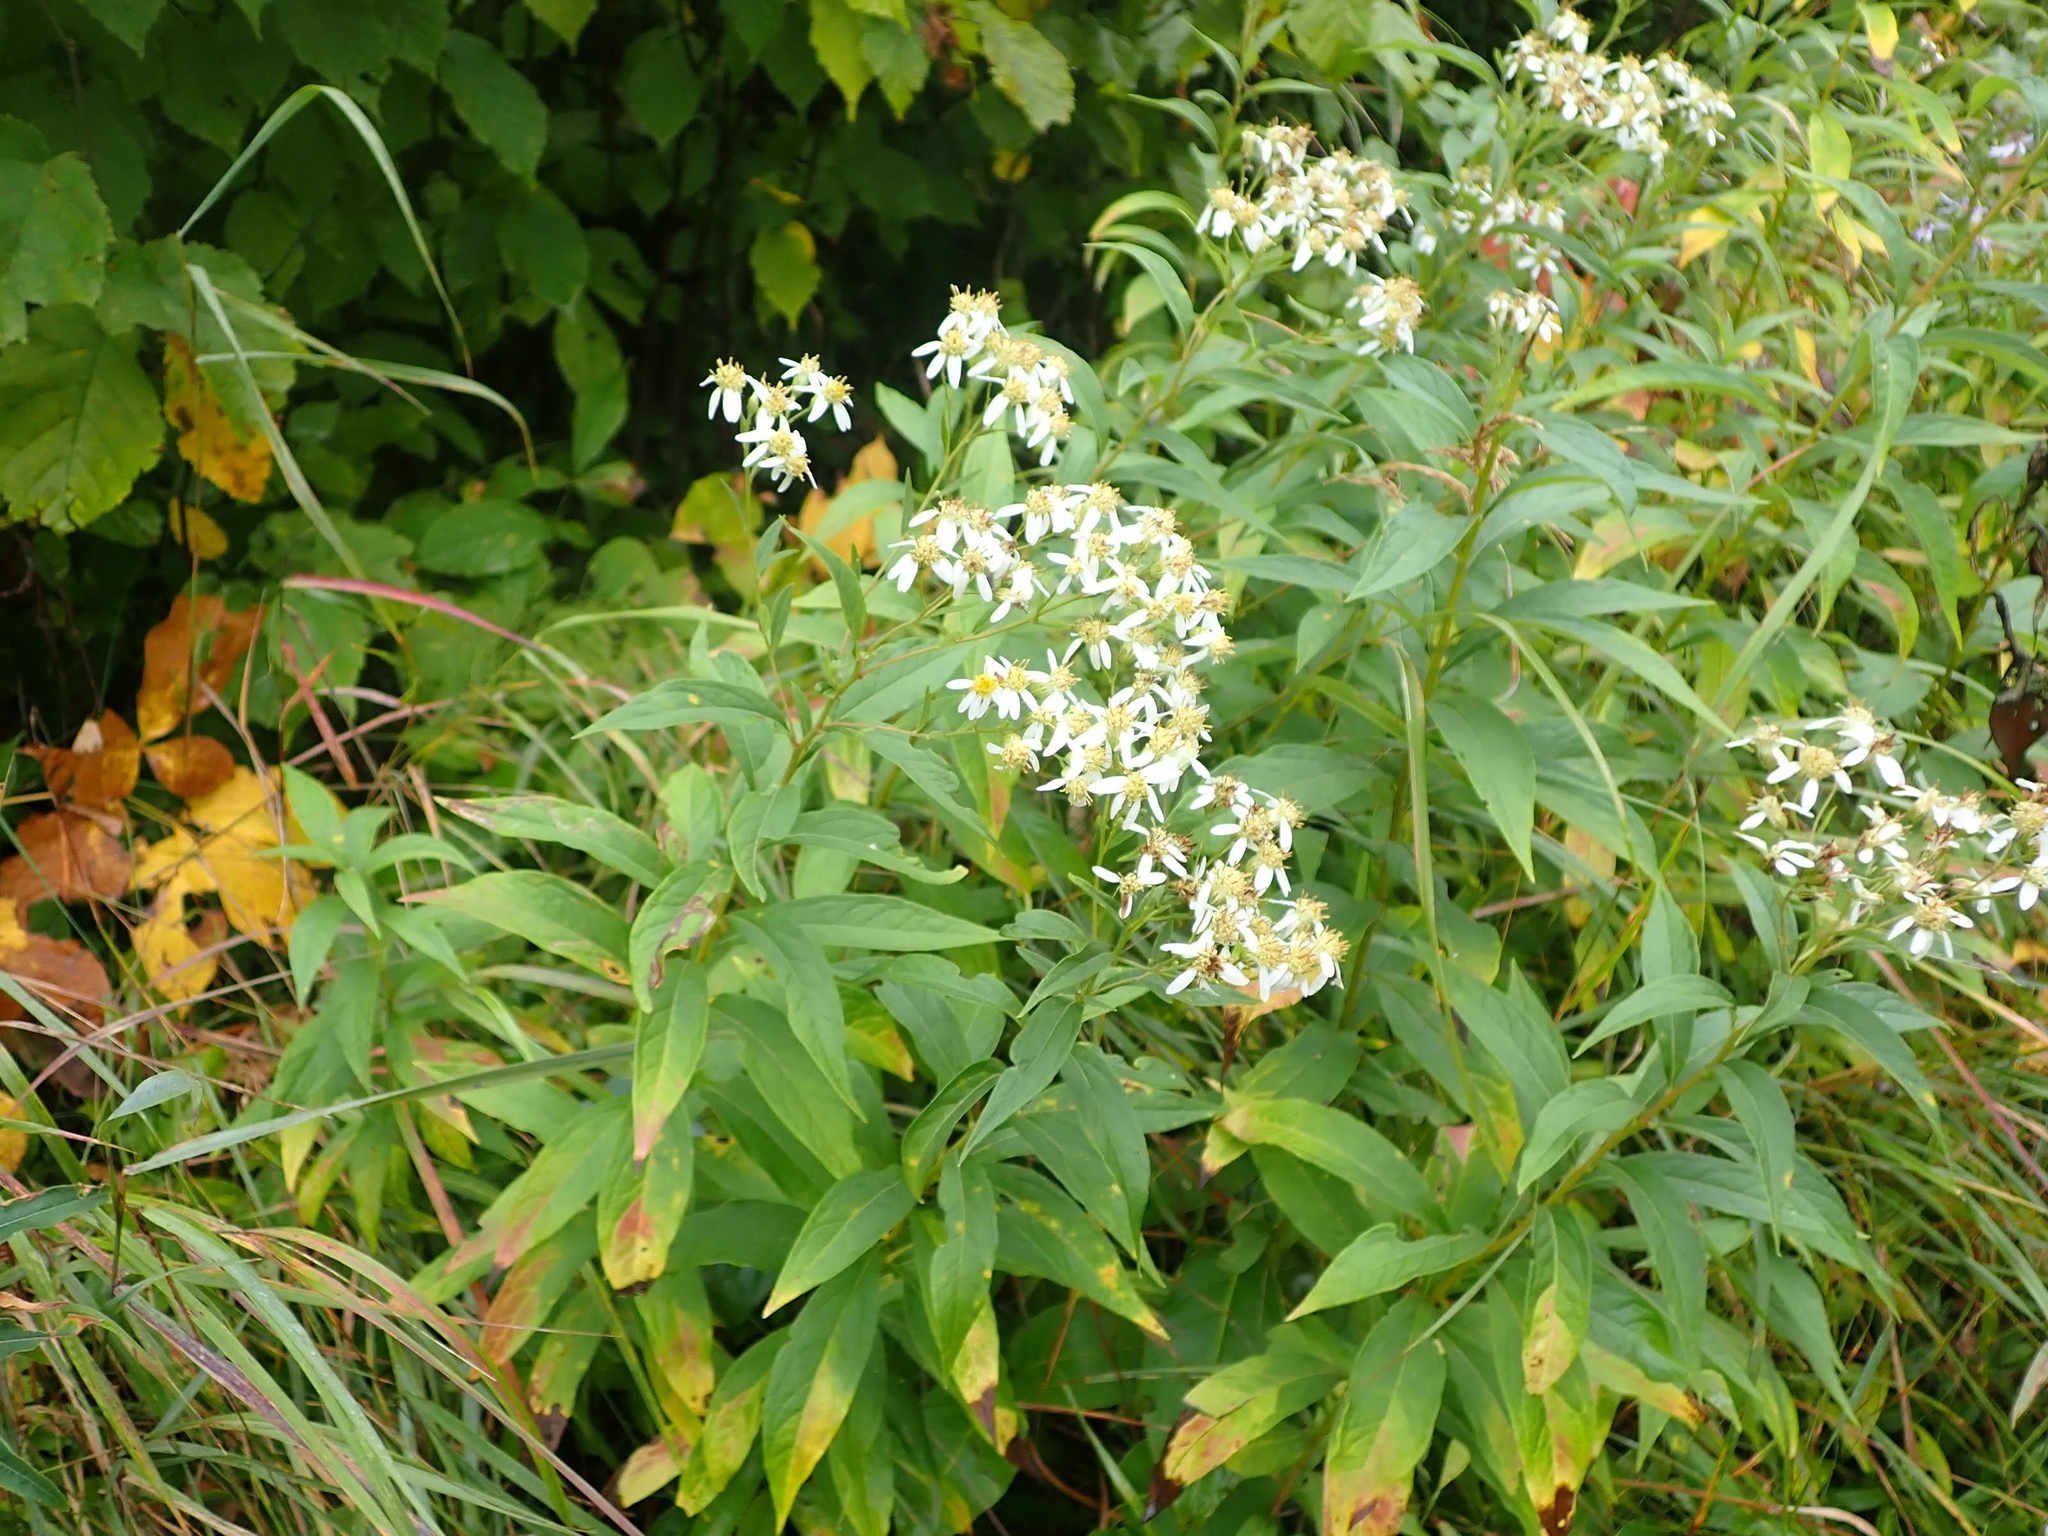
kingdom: Plantae
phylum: Tracheophyta
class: Magnoliopsida
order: Asterales
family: Asteraceae
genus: Doellingeria
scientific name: Doellingeria umbellata
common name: Flat-top white aster
